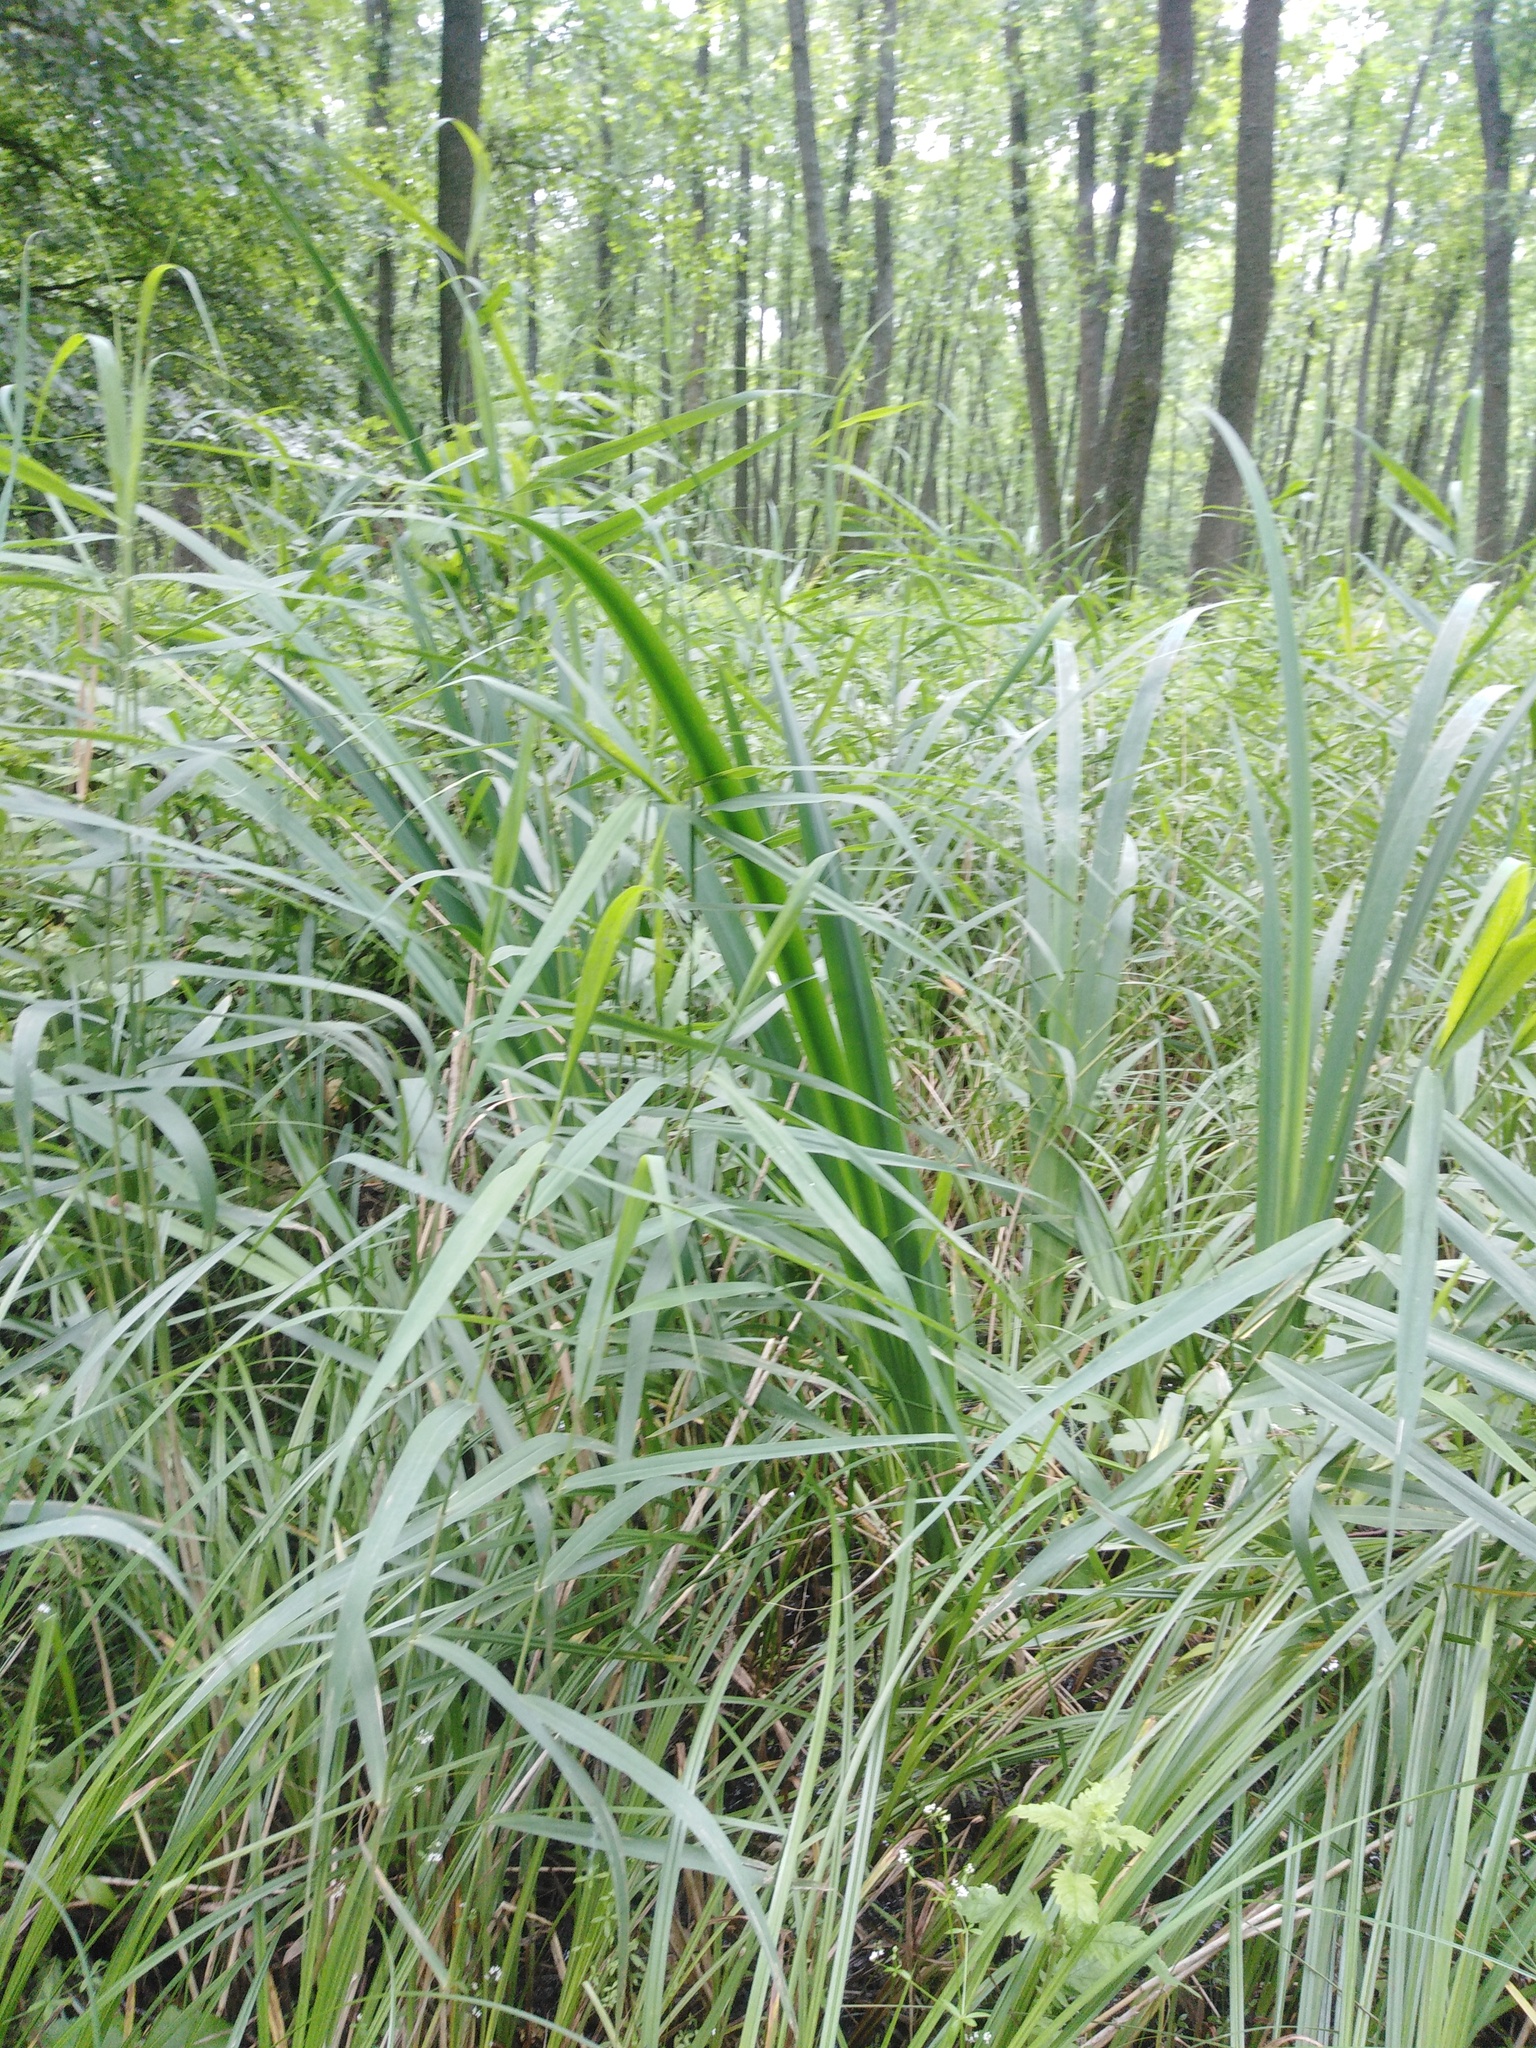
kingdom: Plantae
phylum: Tracheophyta
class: Liliopsida
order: Asparagales
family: Iridaceae
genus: Iris
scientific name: Iris pseudacorus
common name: Yellow flag
